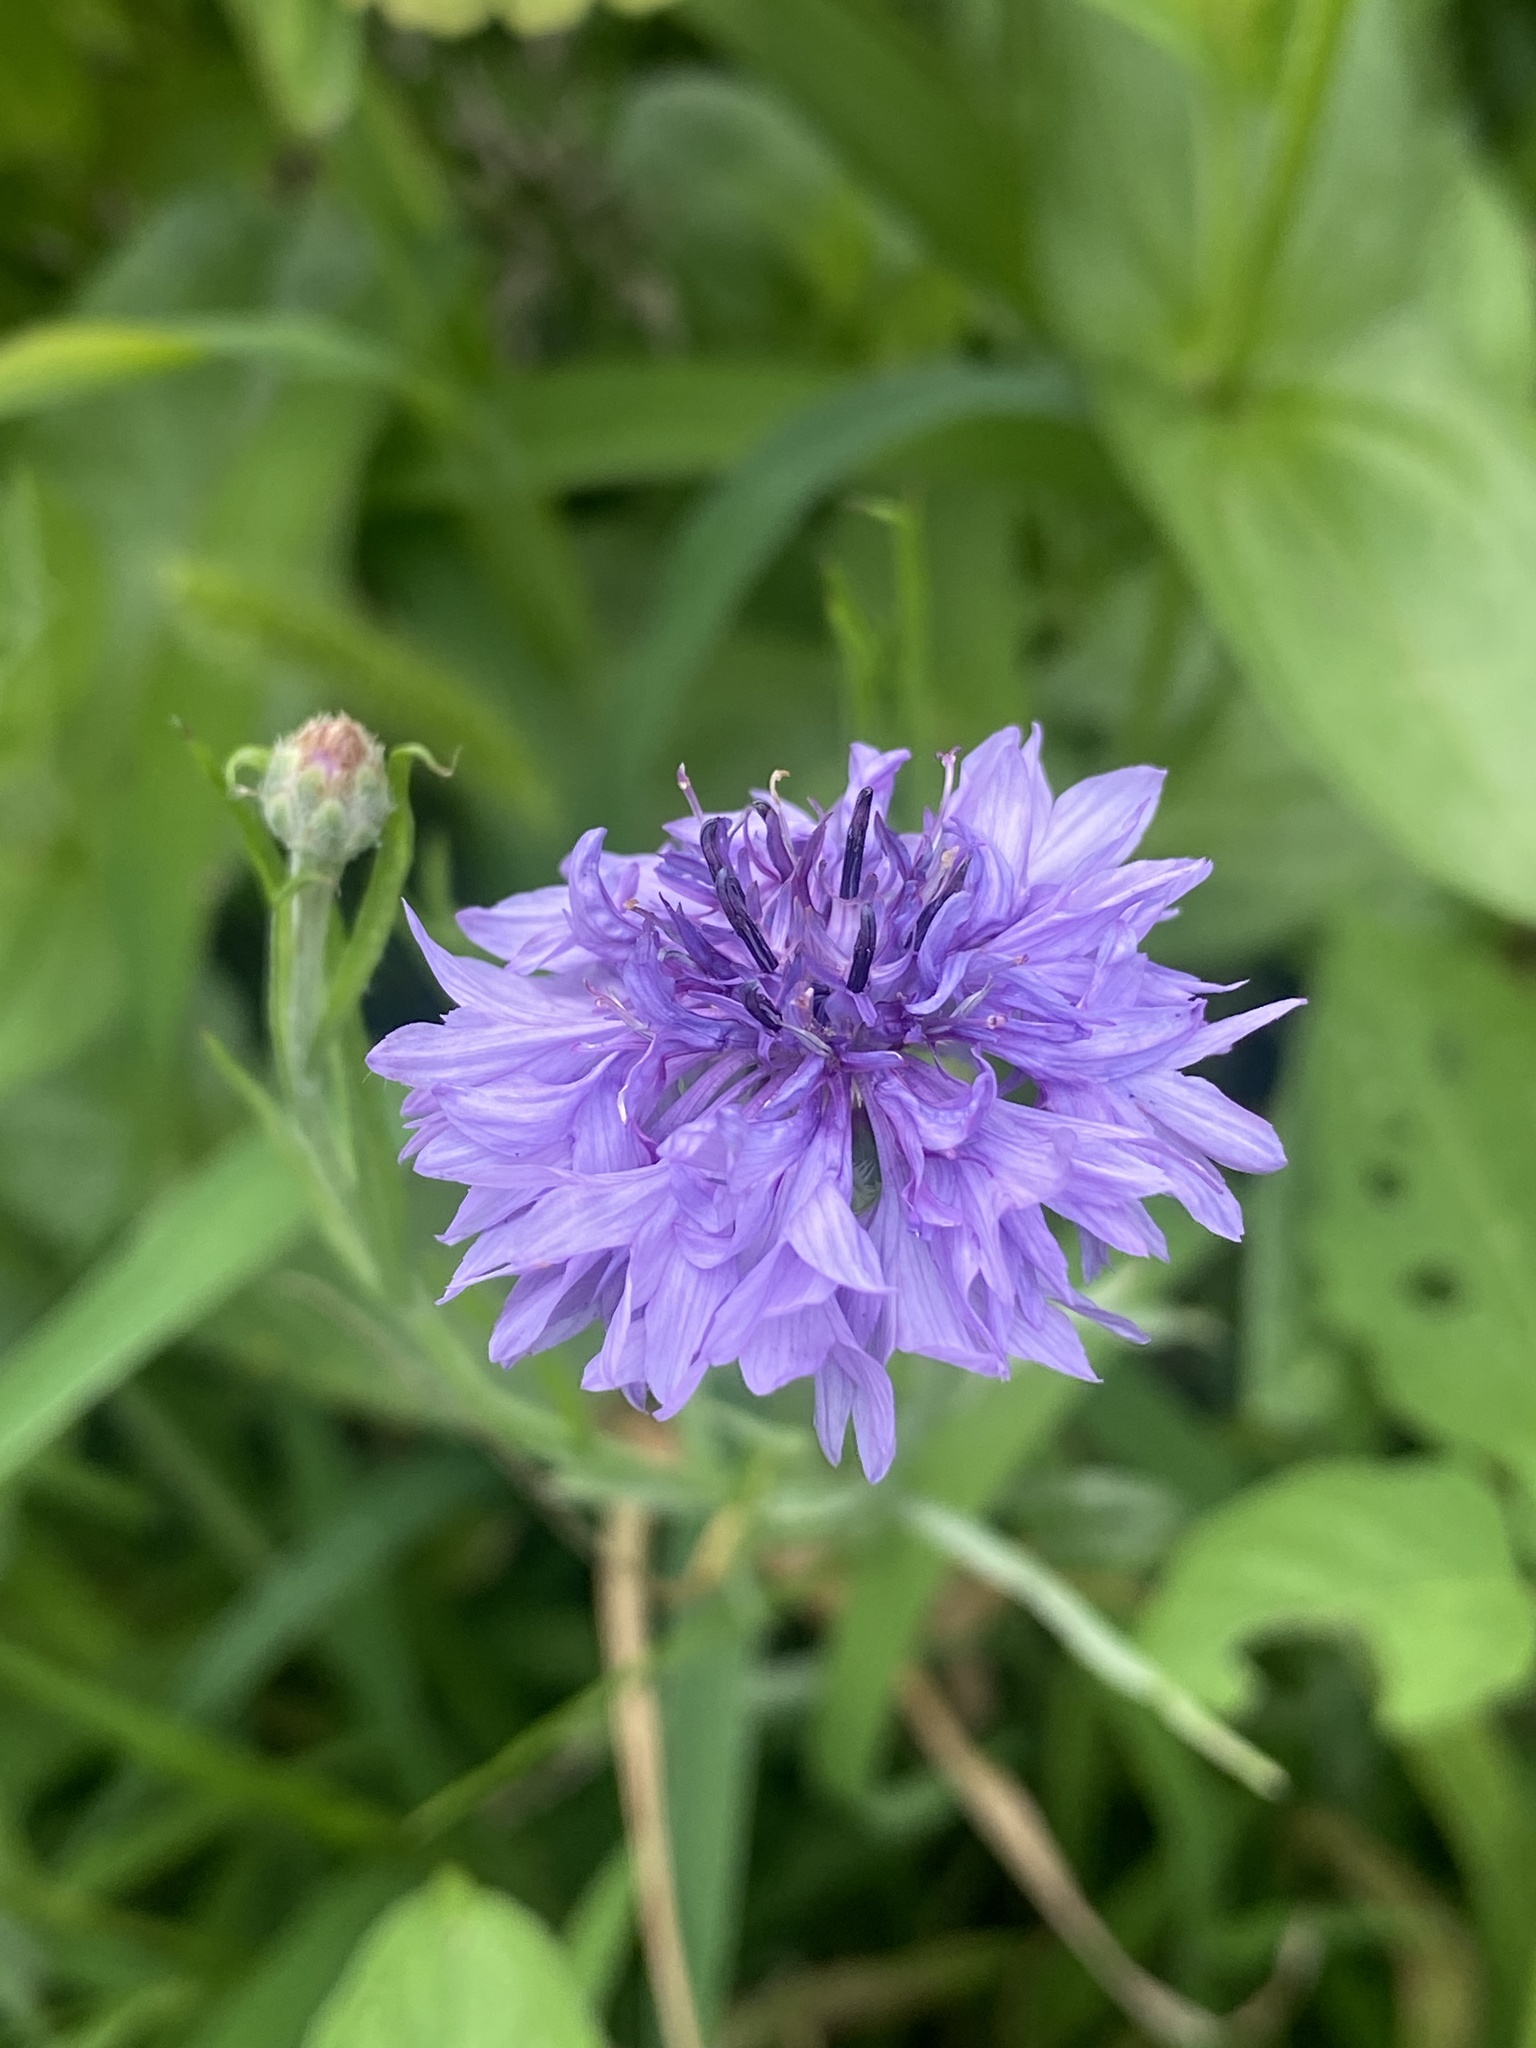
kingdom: Plantae
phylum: Tracheophyta
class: Magnoliopsida
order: Asterales
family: Asteraceae
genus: Centaurea
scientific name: Centaurea cyanus
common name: Cornflower
